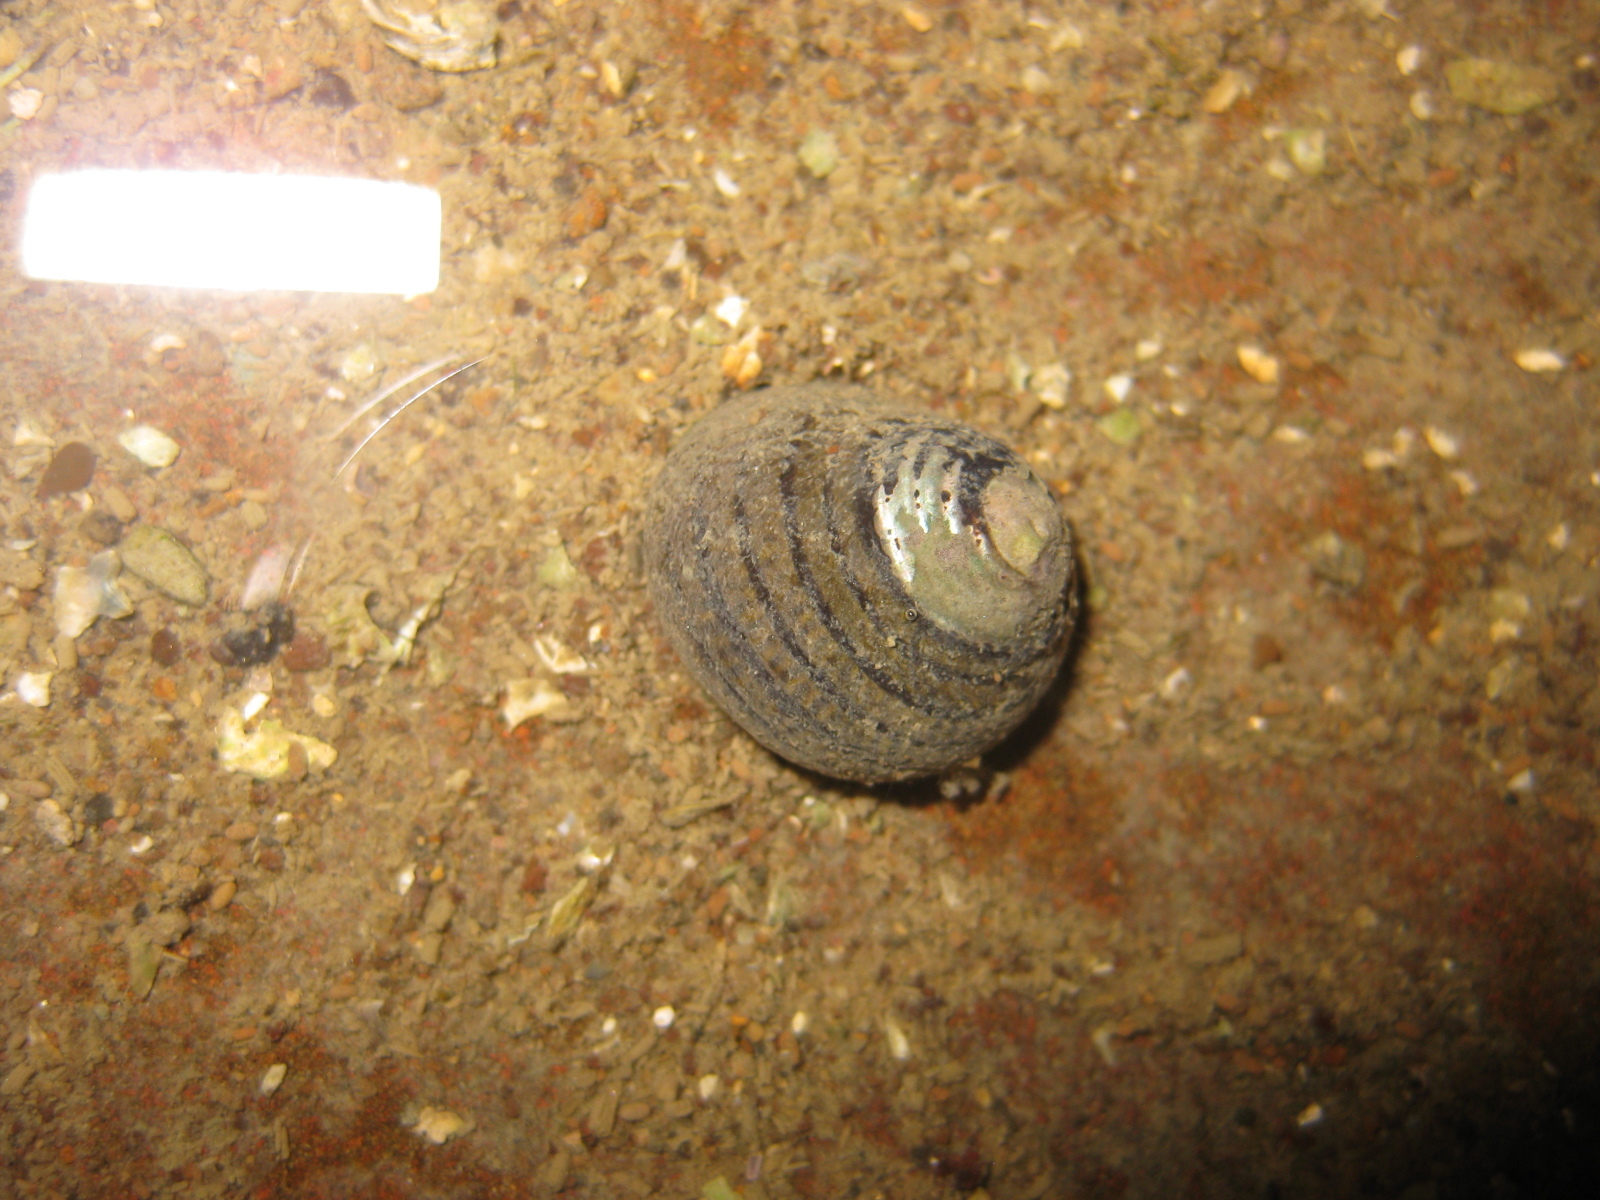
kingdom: Animalia
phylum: Mollusca
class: Gastropoda
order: Trochida
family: Trochidae
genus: Diloma
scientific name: Diloma aethiops
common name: Scorched monodont
